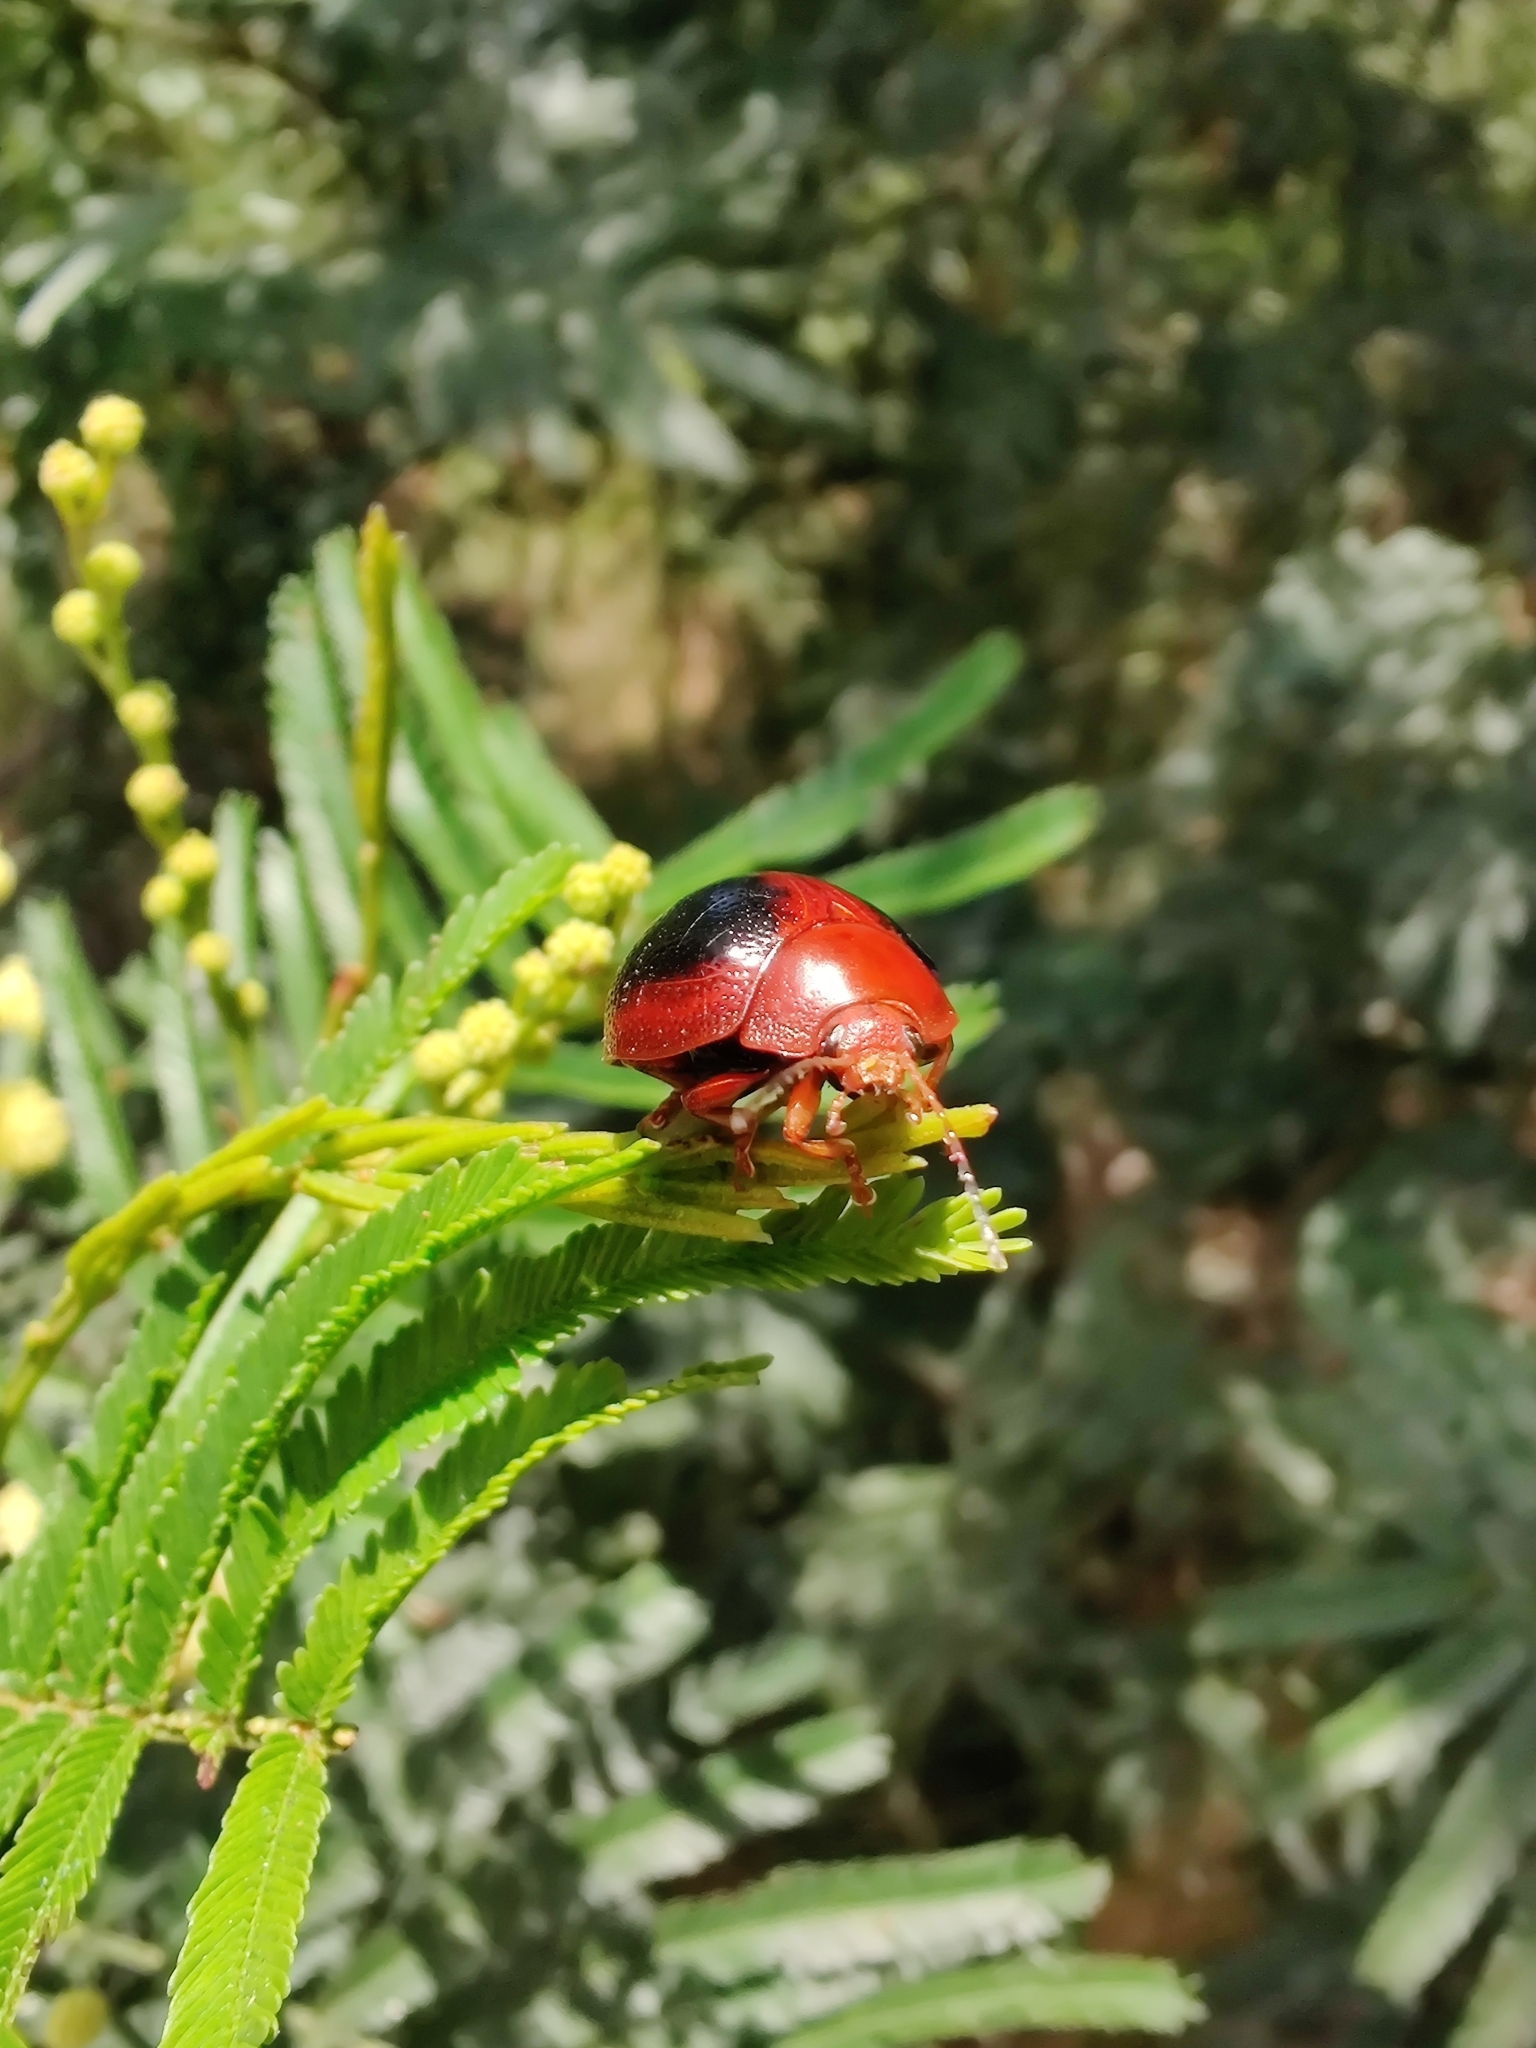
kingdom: Animalia
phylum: Arthropoda
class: Insecta
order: Coleoptera
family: Chrysomelidae
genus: Dicranosterna
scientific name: Dicranosterna
